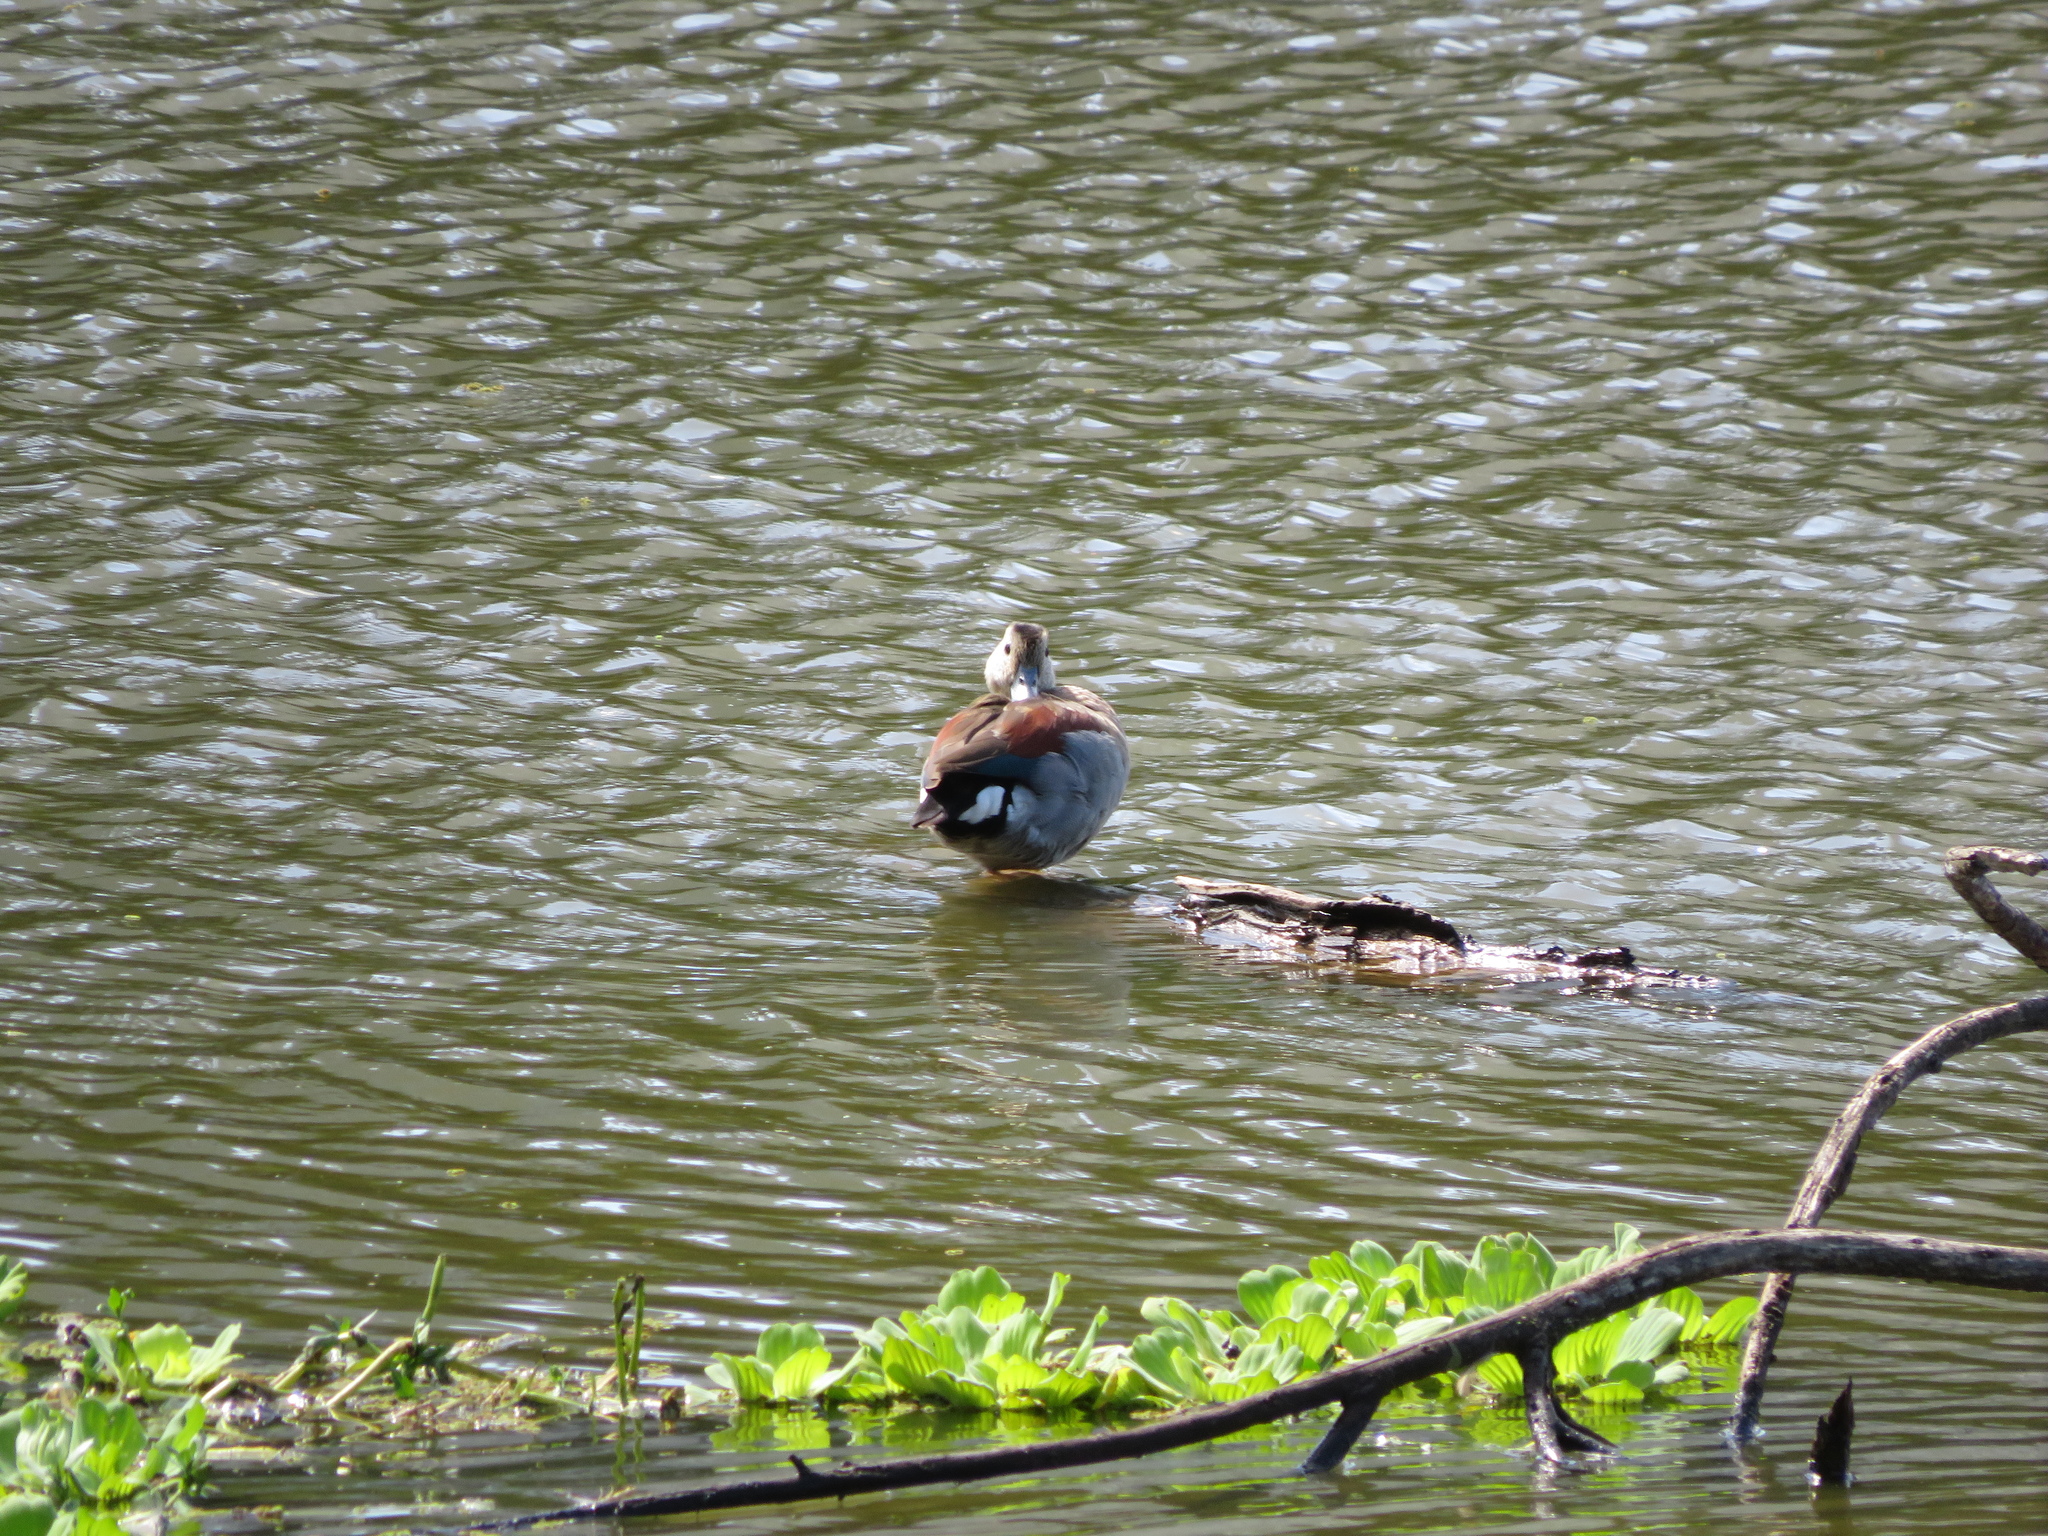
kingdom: Animalia
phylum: Chordata
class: Aves
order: Anseriformes
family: Anatidae
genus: Callonetta
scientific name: Callonetta leucophrys
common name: Ringed teal
